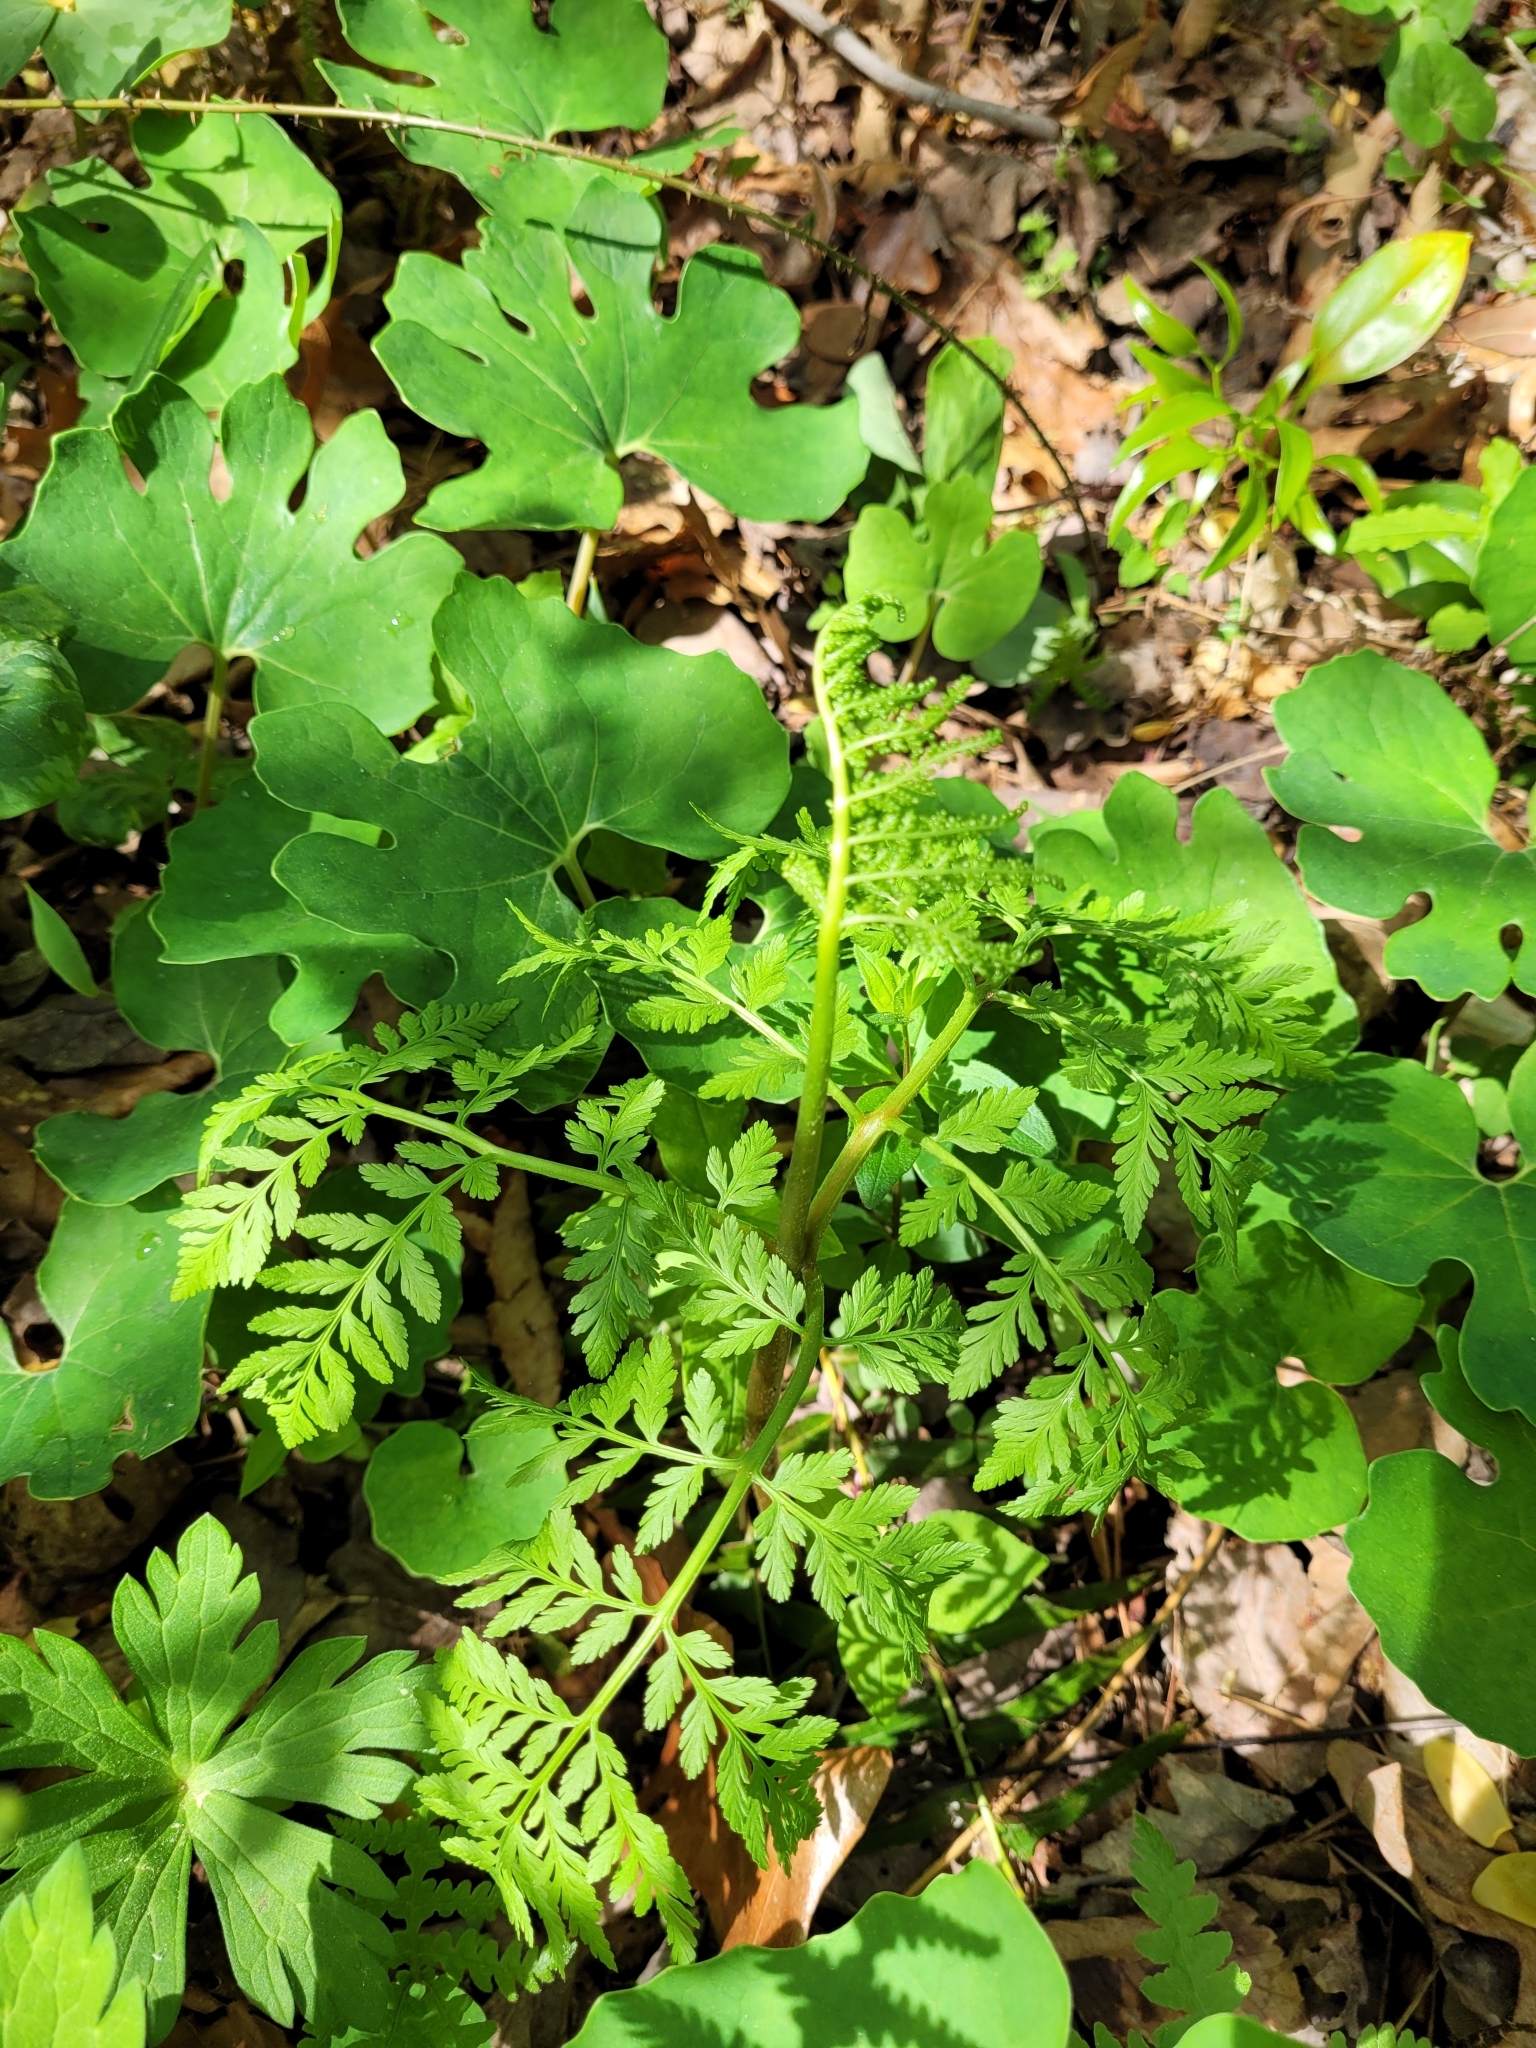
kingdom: Plantae
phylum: Tracheophyta
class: Polypodiopsida
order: Ophioglossales
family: Ophioglossaceae
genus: Botrypus
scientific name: Botrypus virginianus
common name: Common grapefern
